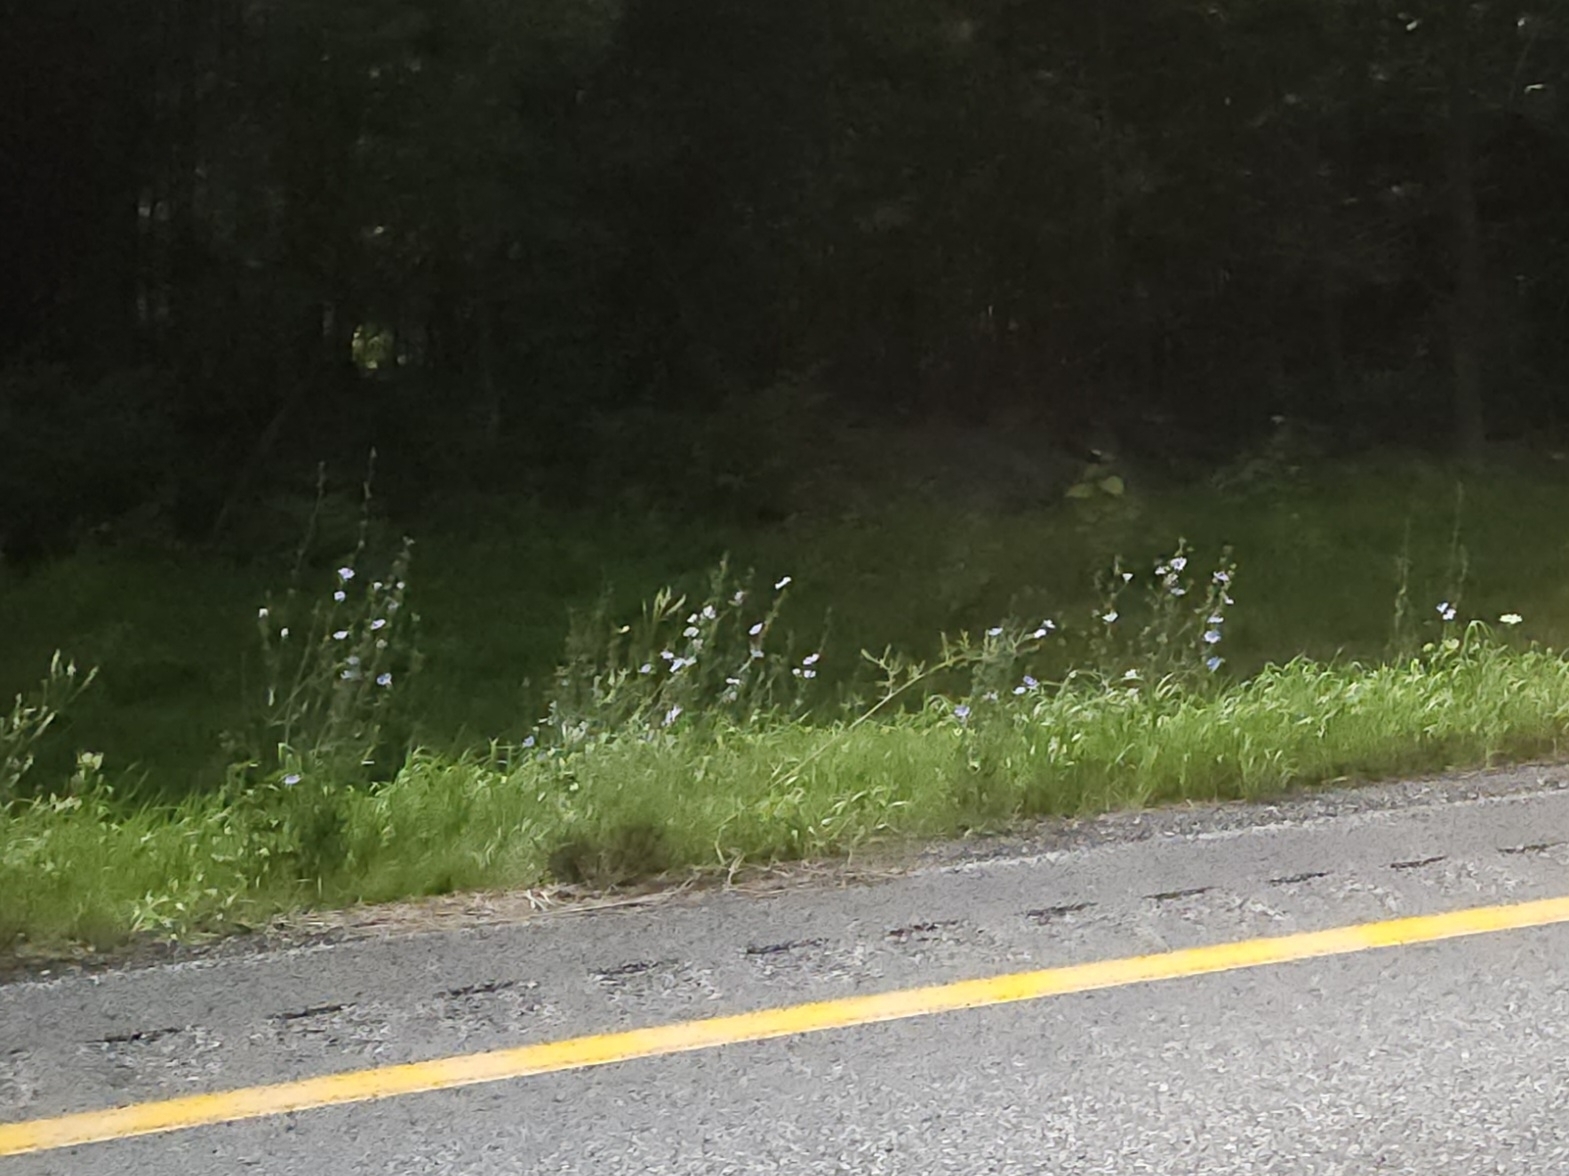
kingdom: Plantae
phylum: Tracheophyta
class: Magnoliopsida
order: Asterales
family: Asteraceae
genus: Cichorium
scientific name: Cichorium intybus
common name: Chicory
